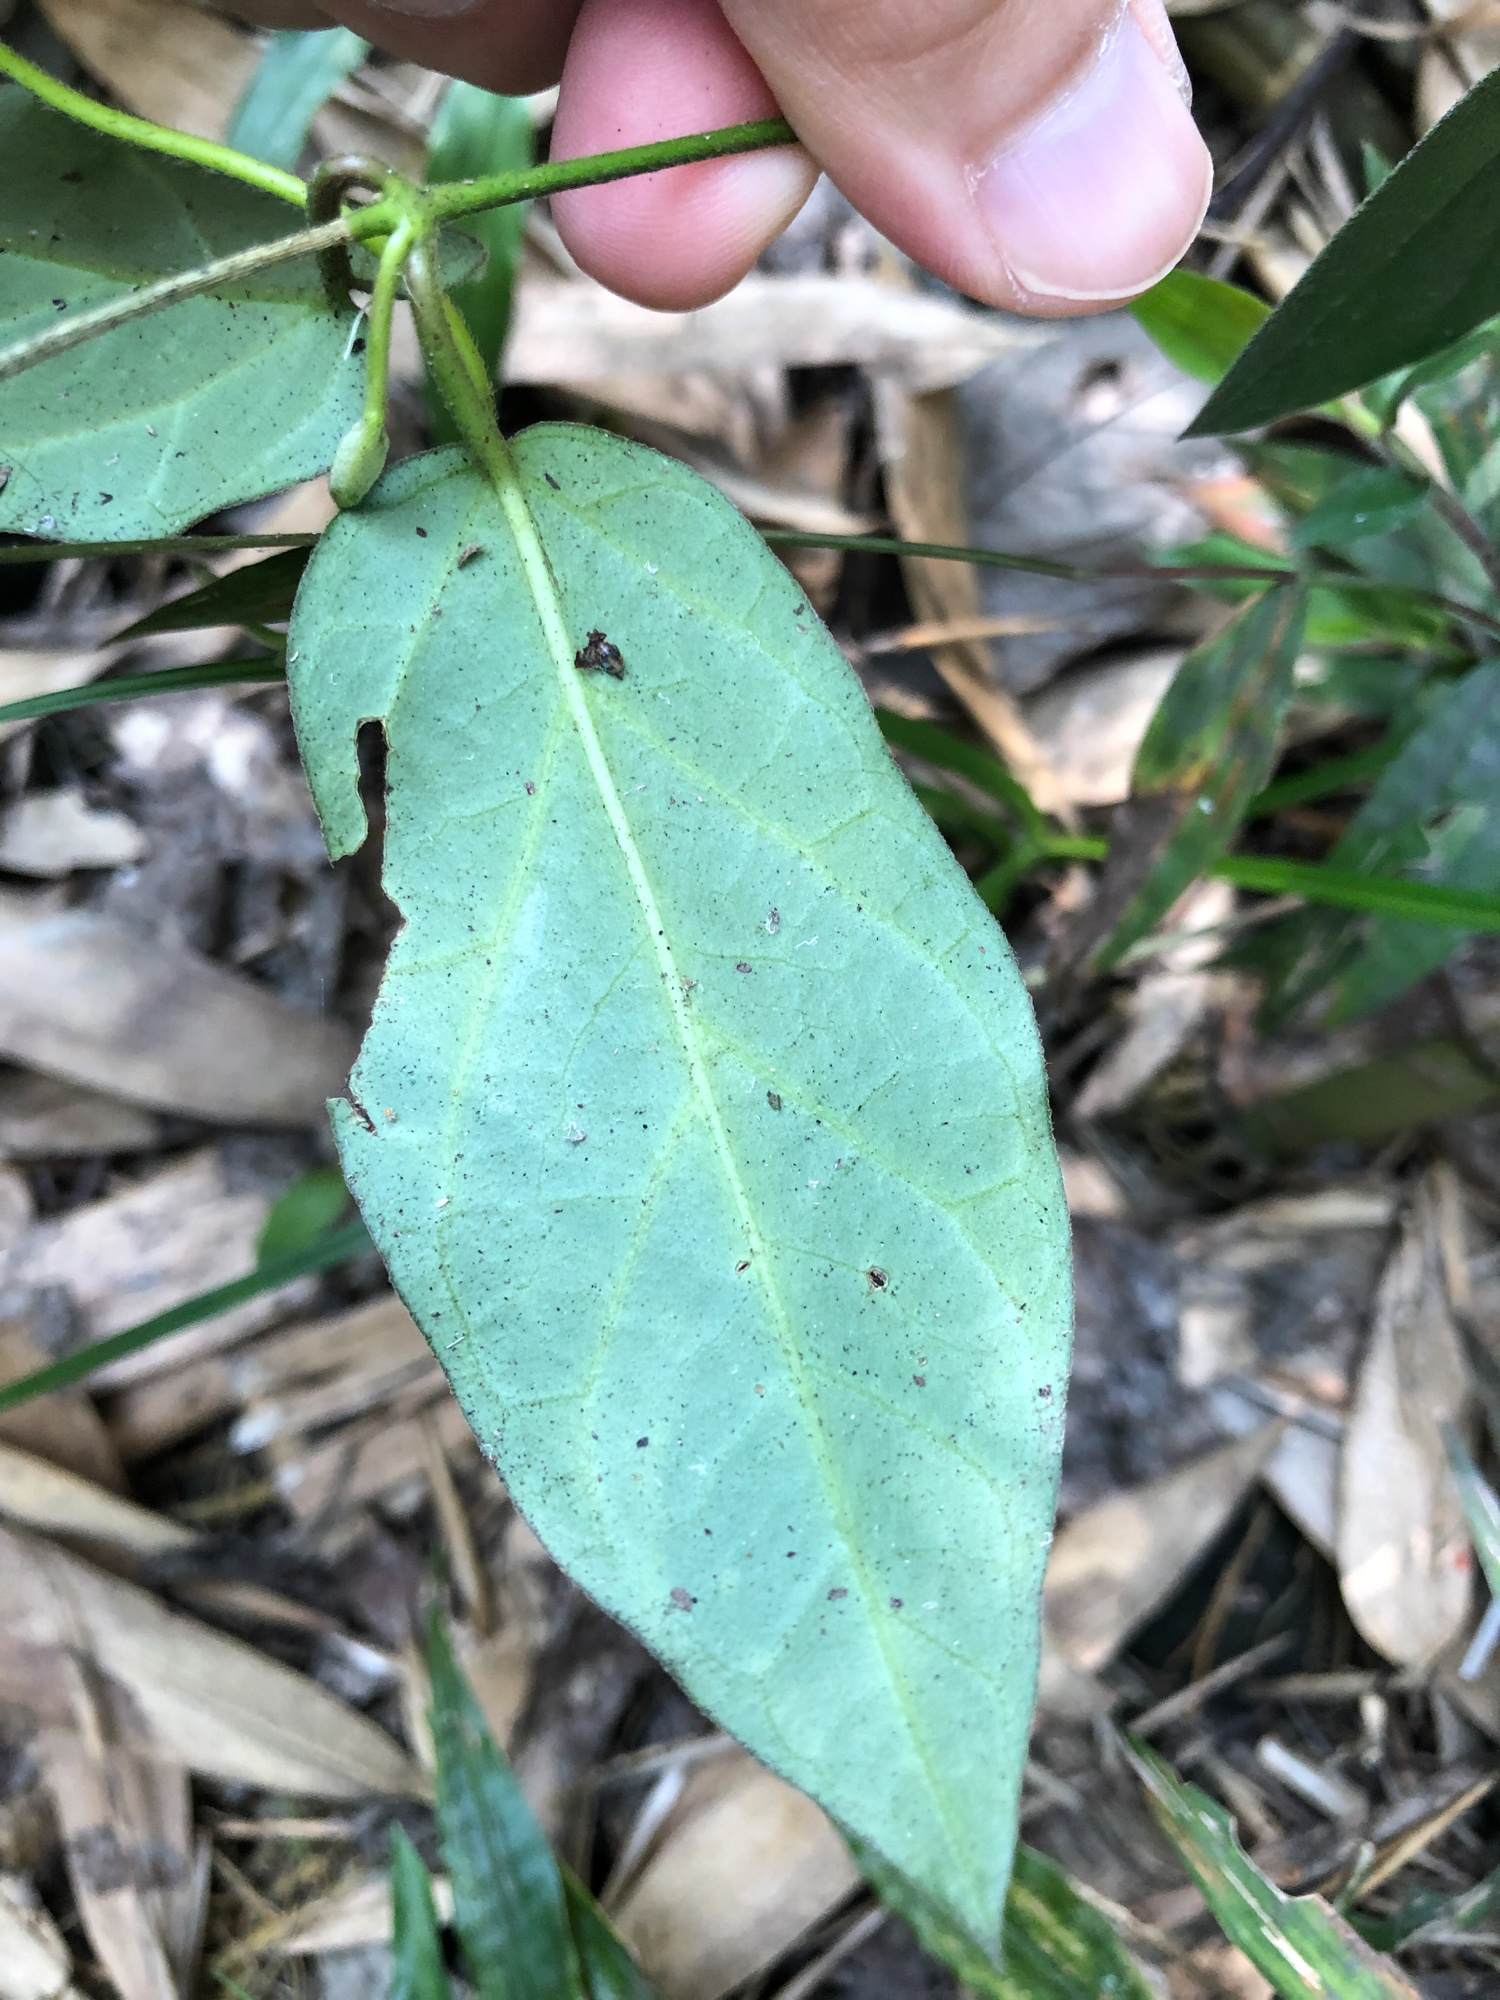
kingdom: Plantae
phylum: Tracheophyta
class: Magnoliopsida
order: Gentianales
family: Apocynaceae
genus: Urceola
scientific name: Urceola micrantha
